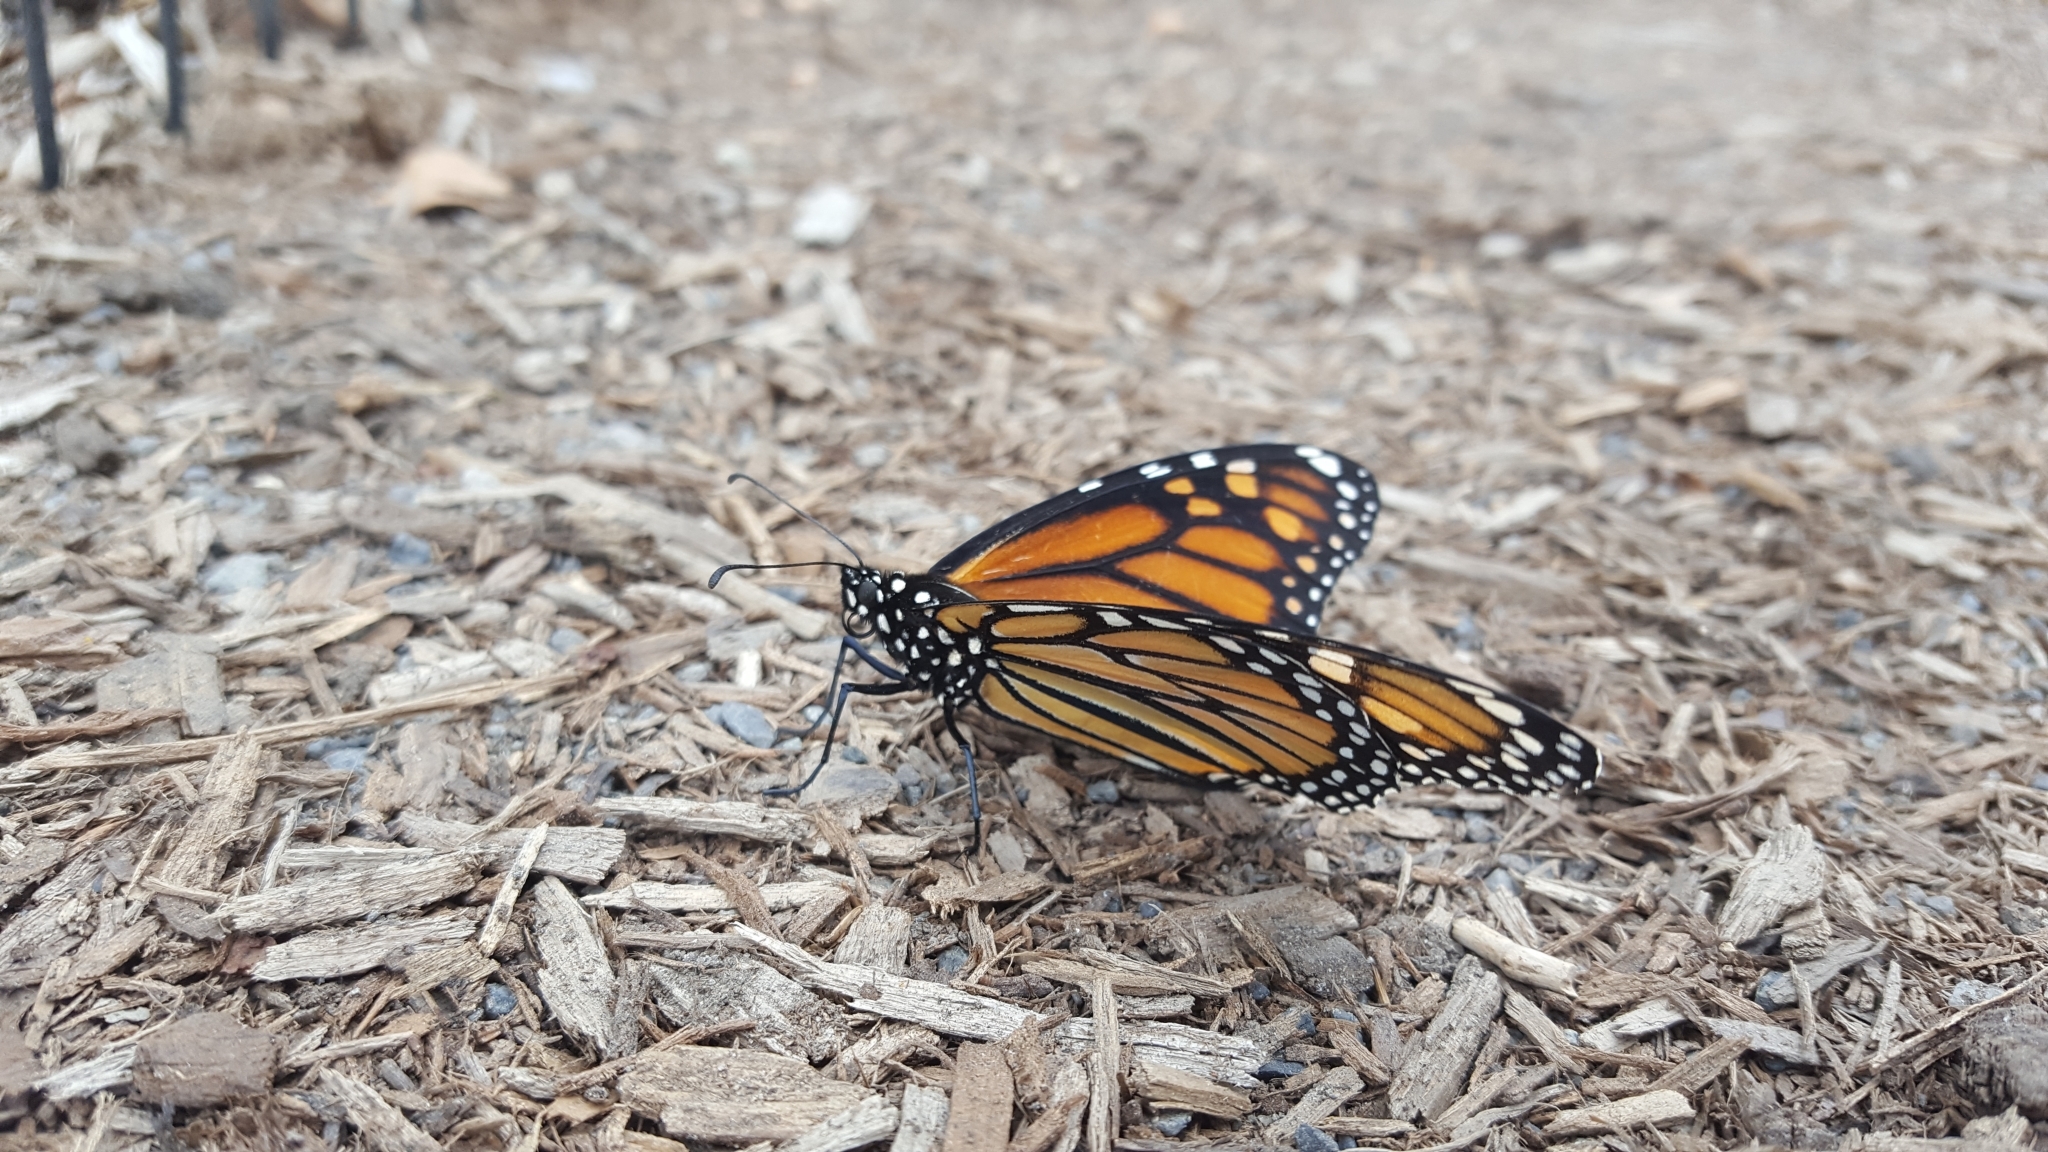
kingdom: Animalia
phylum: Arthropoda
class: Insecta
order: Lepidoptera
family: Nymphalidae
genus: Danaus
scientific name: Danaus plexippus
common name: Monarch
